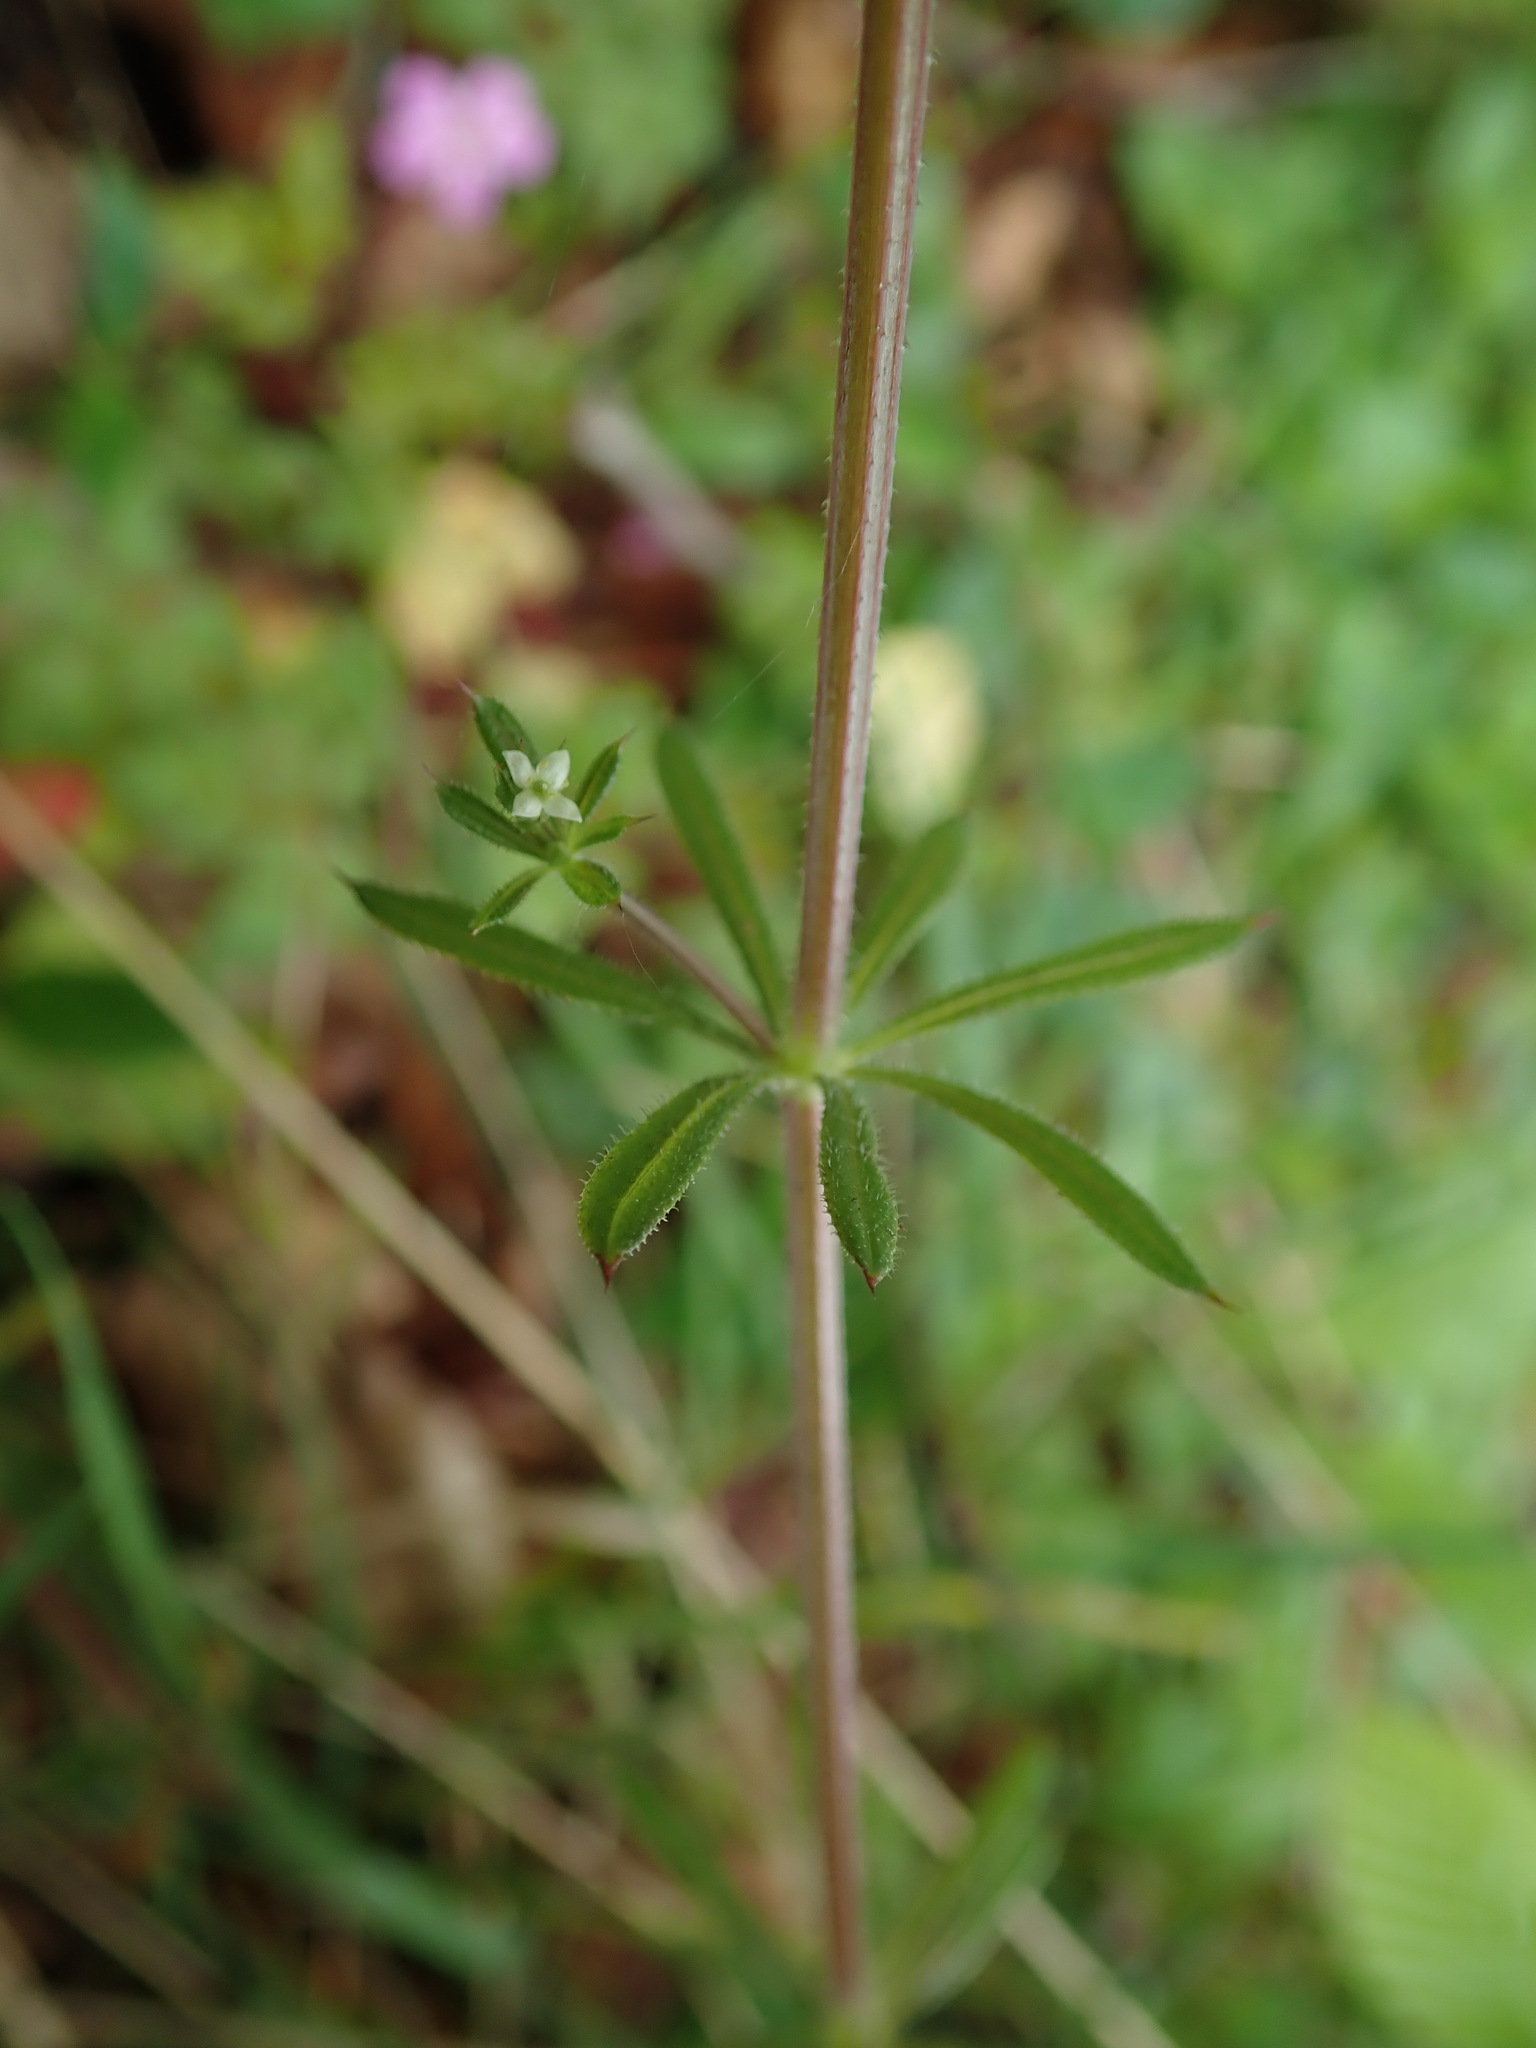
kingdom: Plantae
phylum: Tracheophyta
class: Magnoliopsida
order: Gentianales
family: Rubiaceae
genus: Galium
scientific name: Galium aparine
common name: Cleavers
